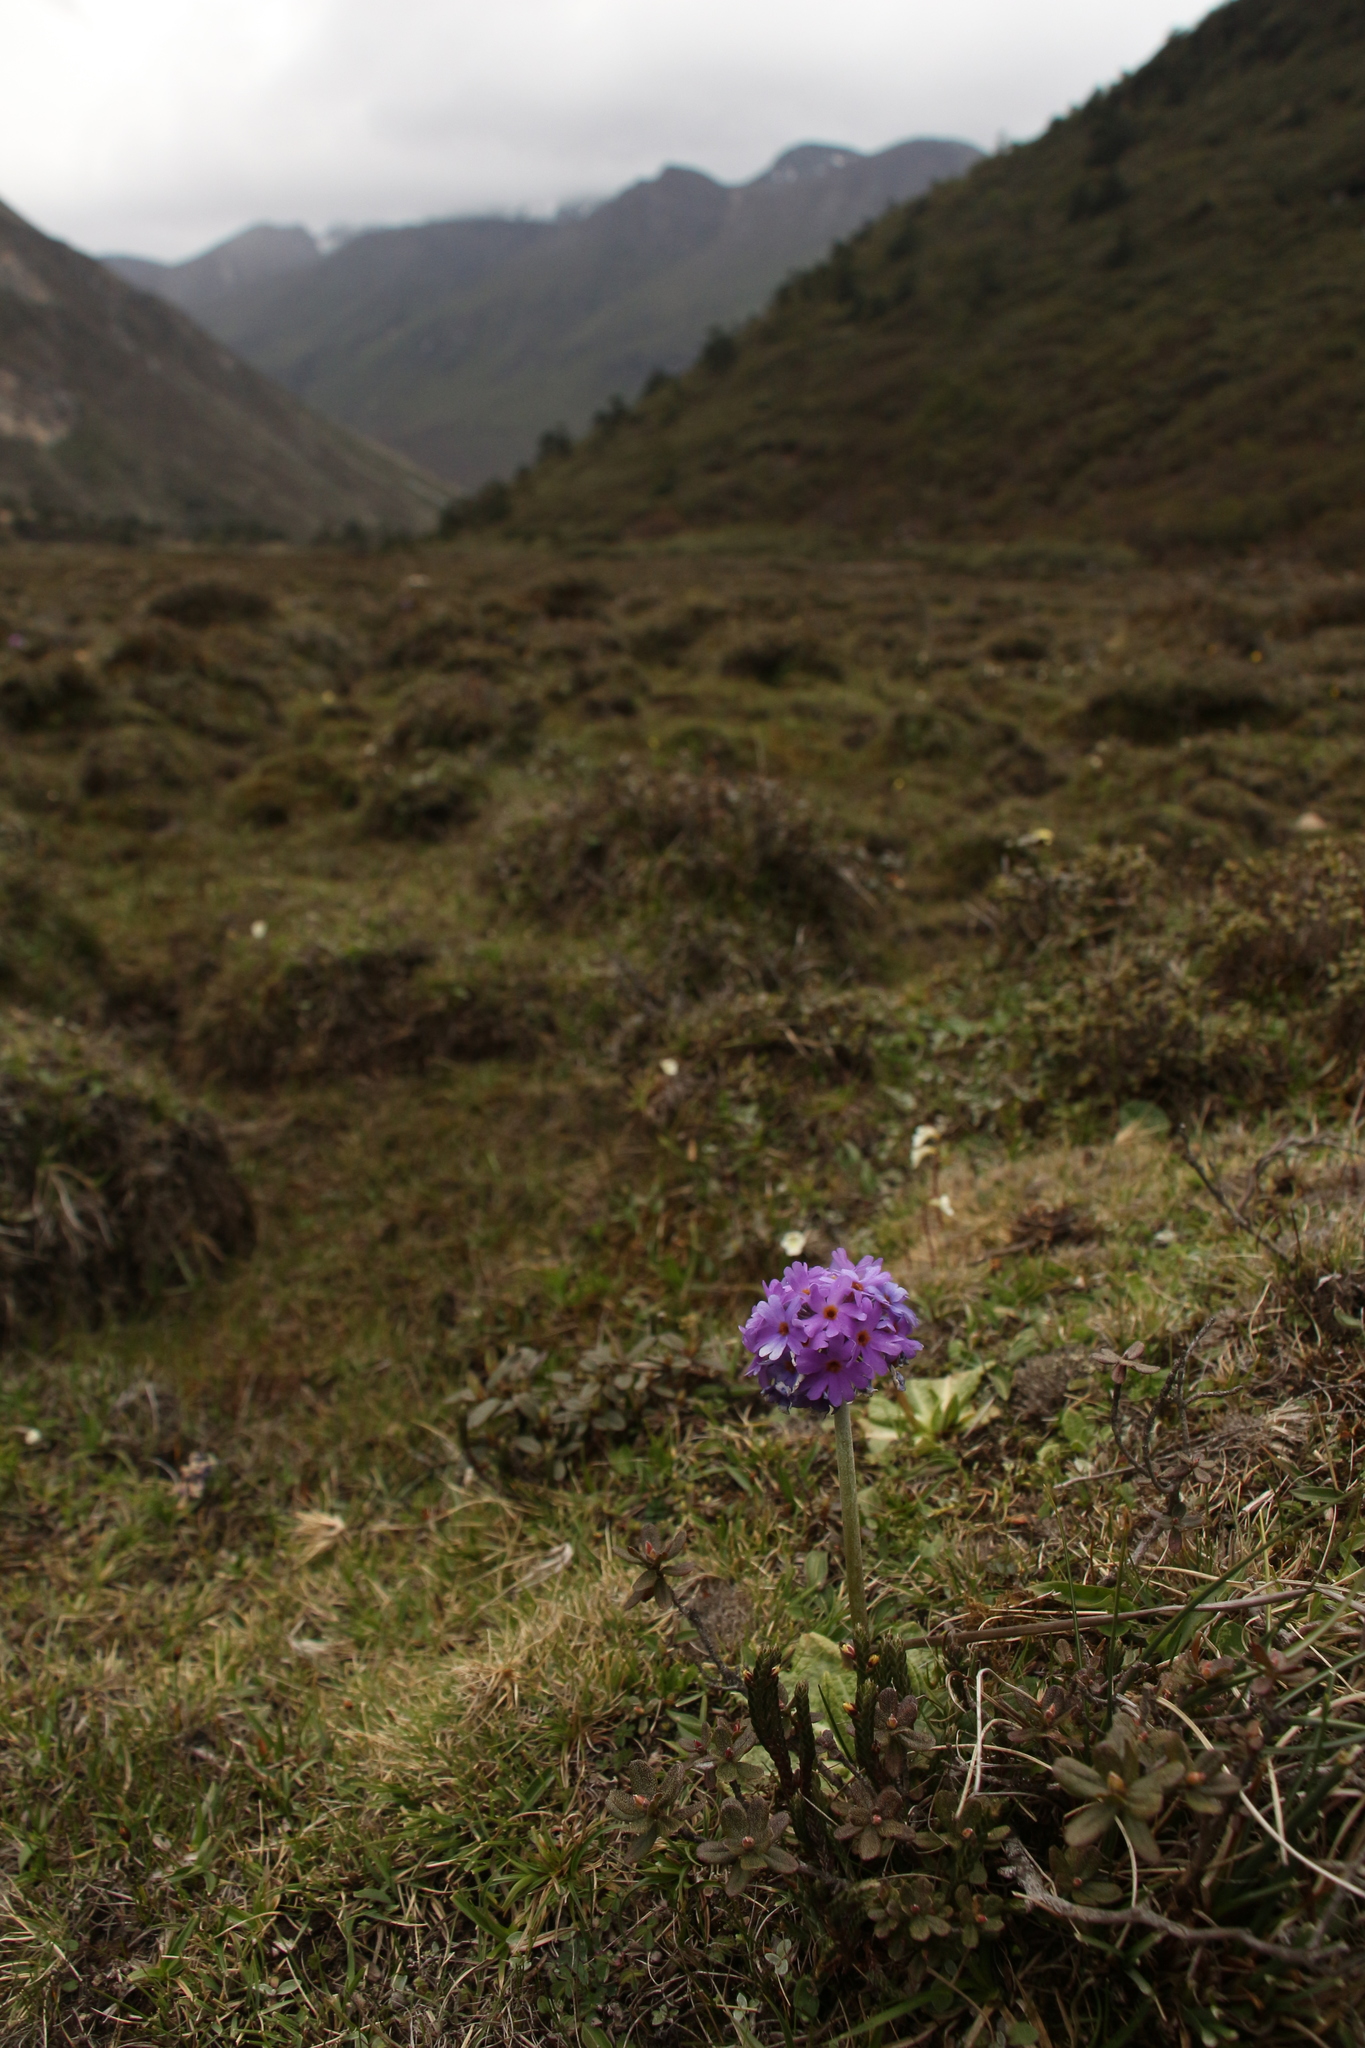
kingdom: Plantae
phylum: Tracheophyta
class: Magnoliopsida
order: Ericales
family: Primulaceae
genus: Primula
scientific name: Primula denticulata
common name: Drumstick primula
